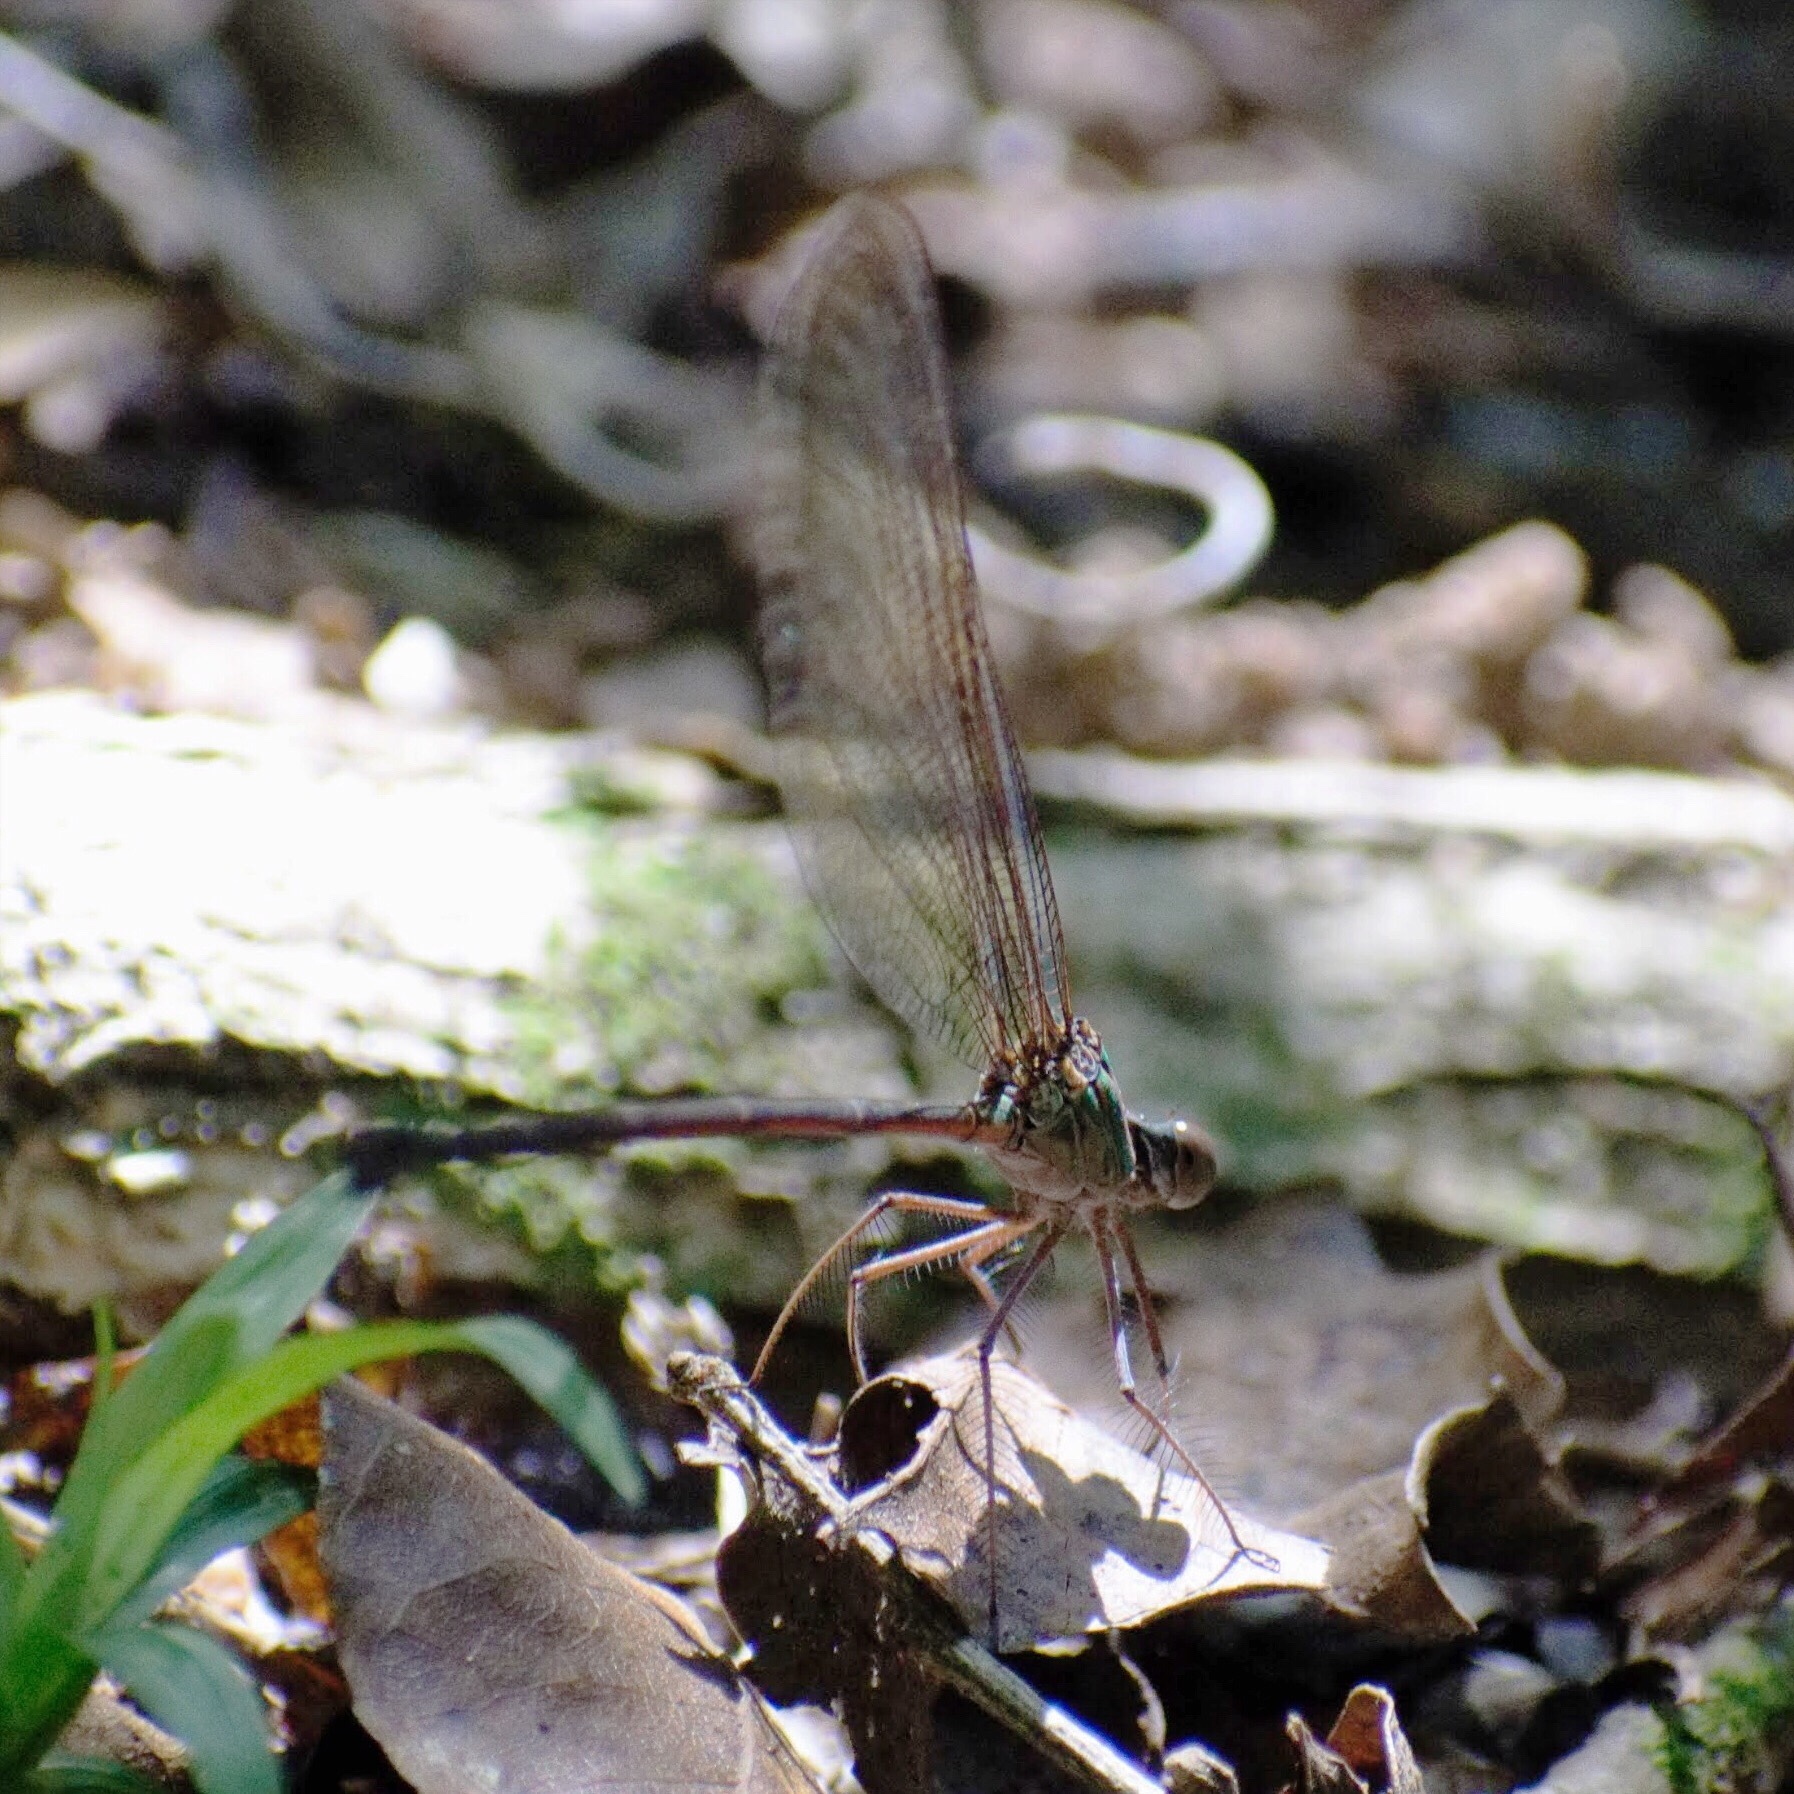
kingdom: Animalia
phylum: Arthropoda
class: Insecta
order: Odonata
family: Calopterygidae
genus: Phaon
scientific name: Phaon iridipennis
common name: Glistening demoiselle
